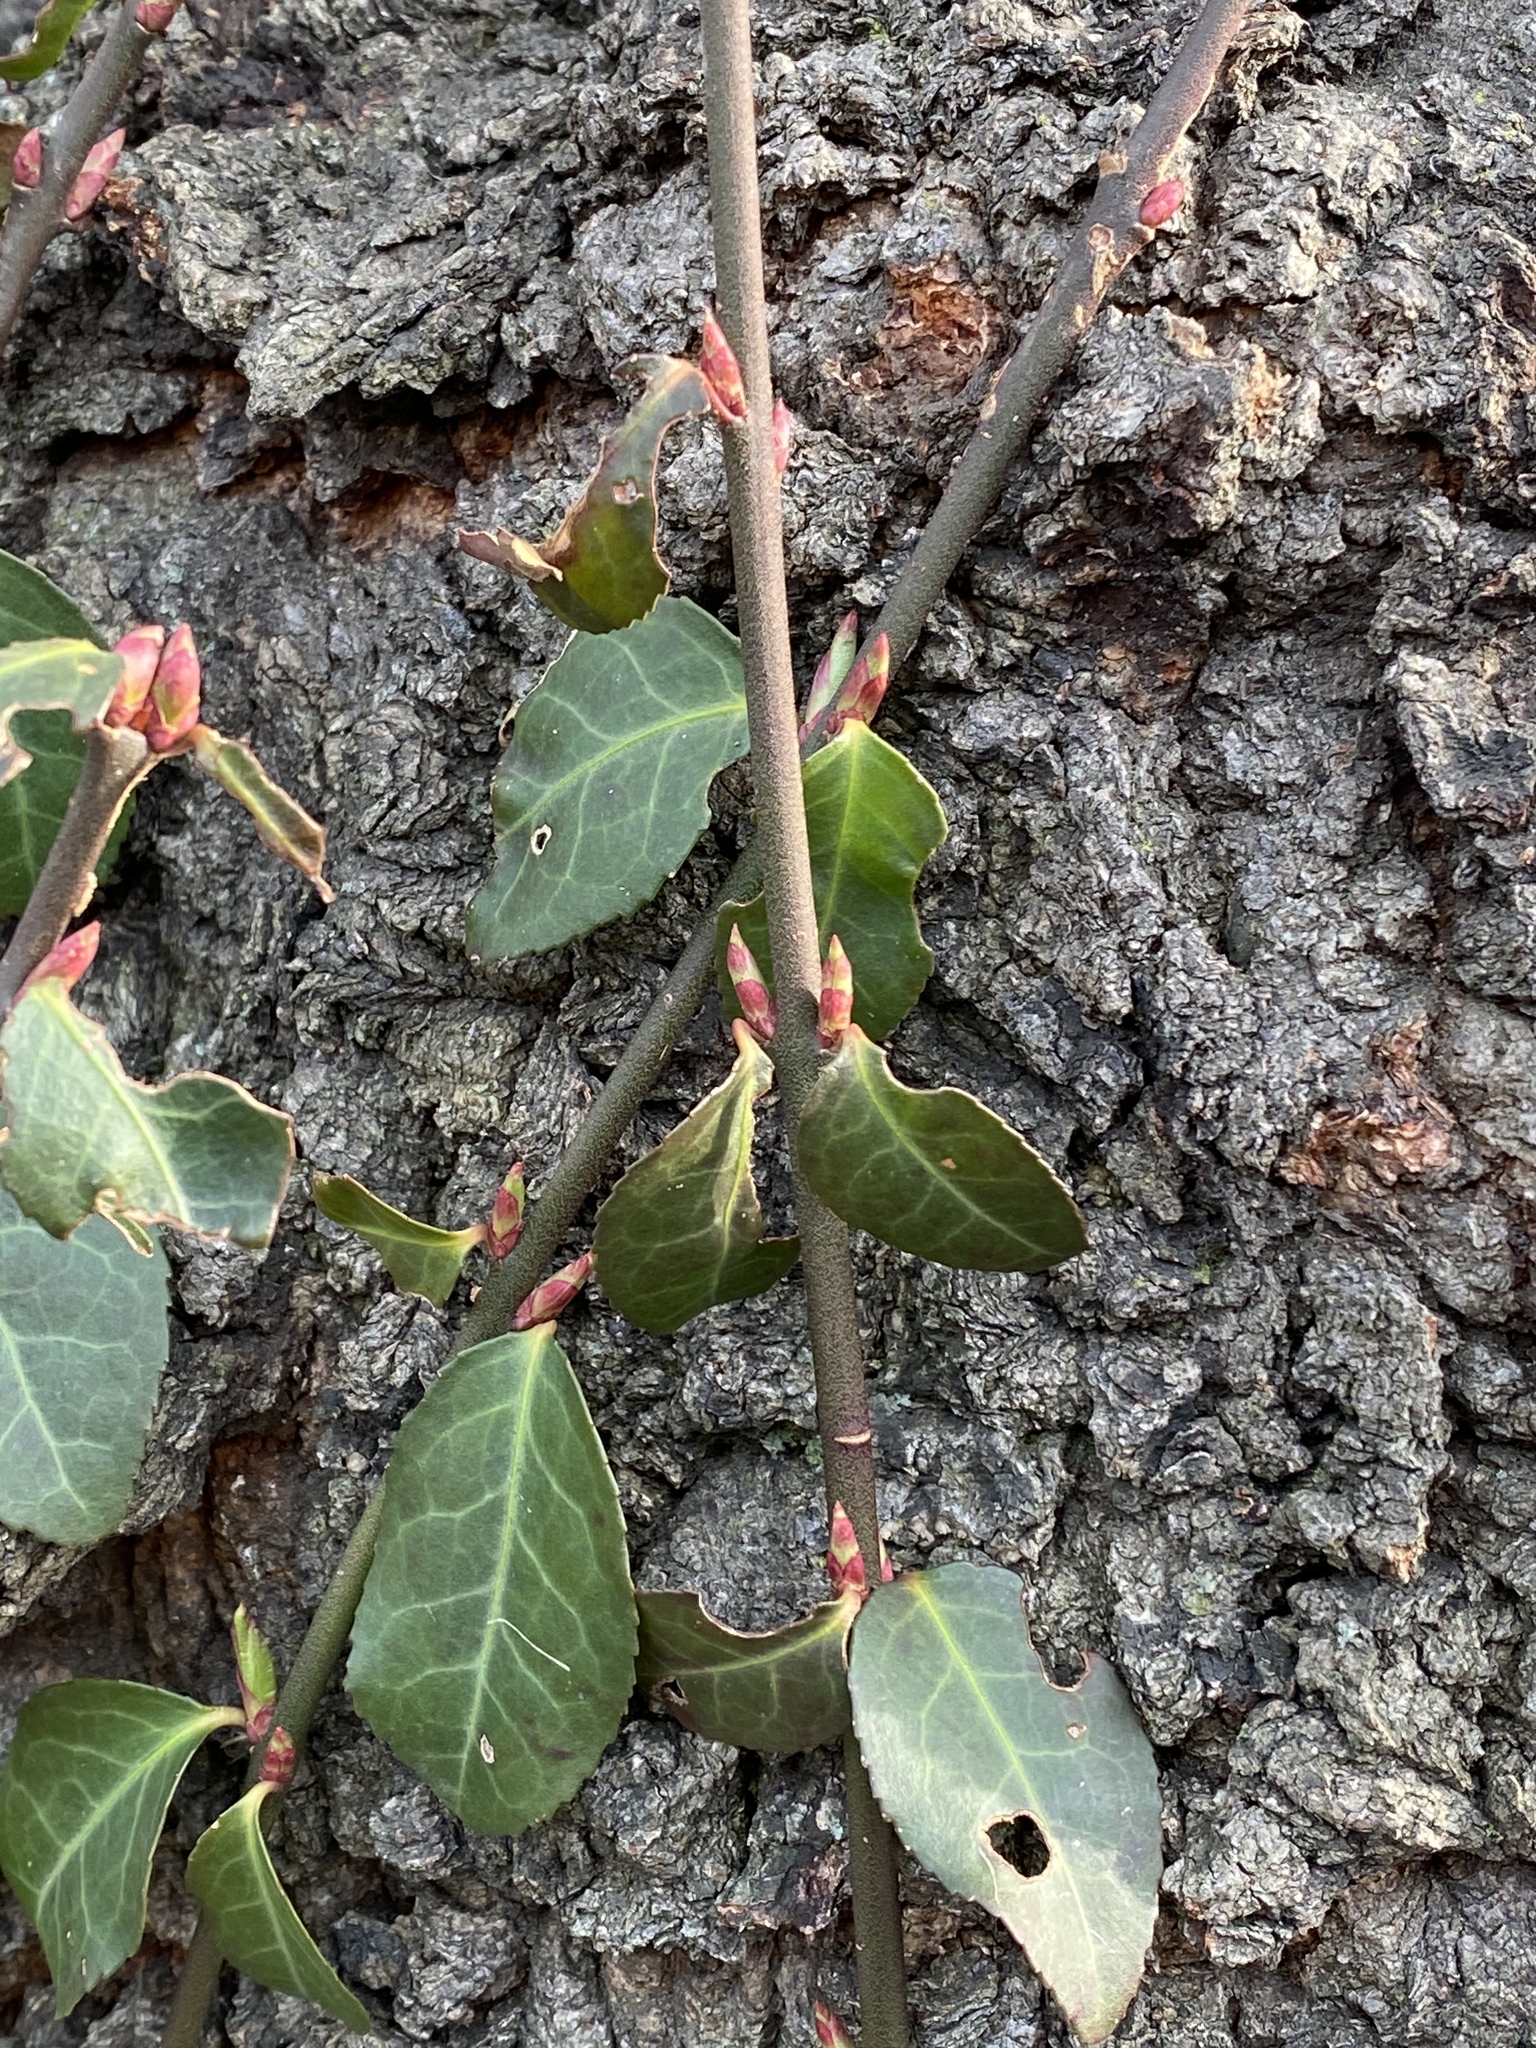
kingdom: Plantae
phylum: Tracheophyta
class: Magnoliopsida
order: Celastrales
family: Celastraceae
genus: Euonymus
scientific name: Euonymus fortunei
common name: Climbing euonymus
